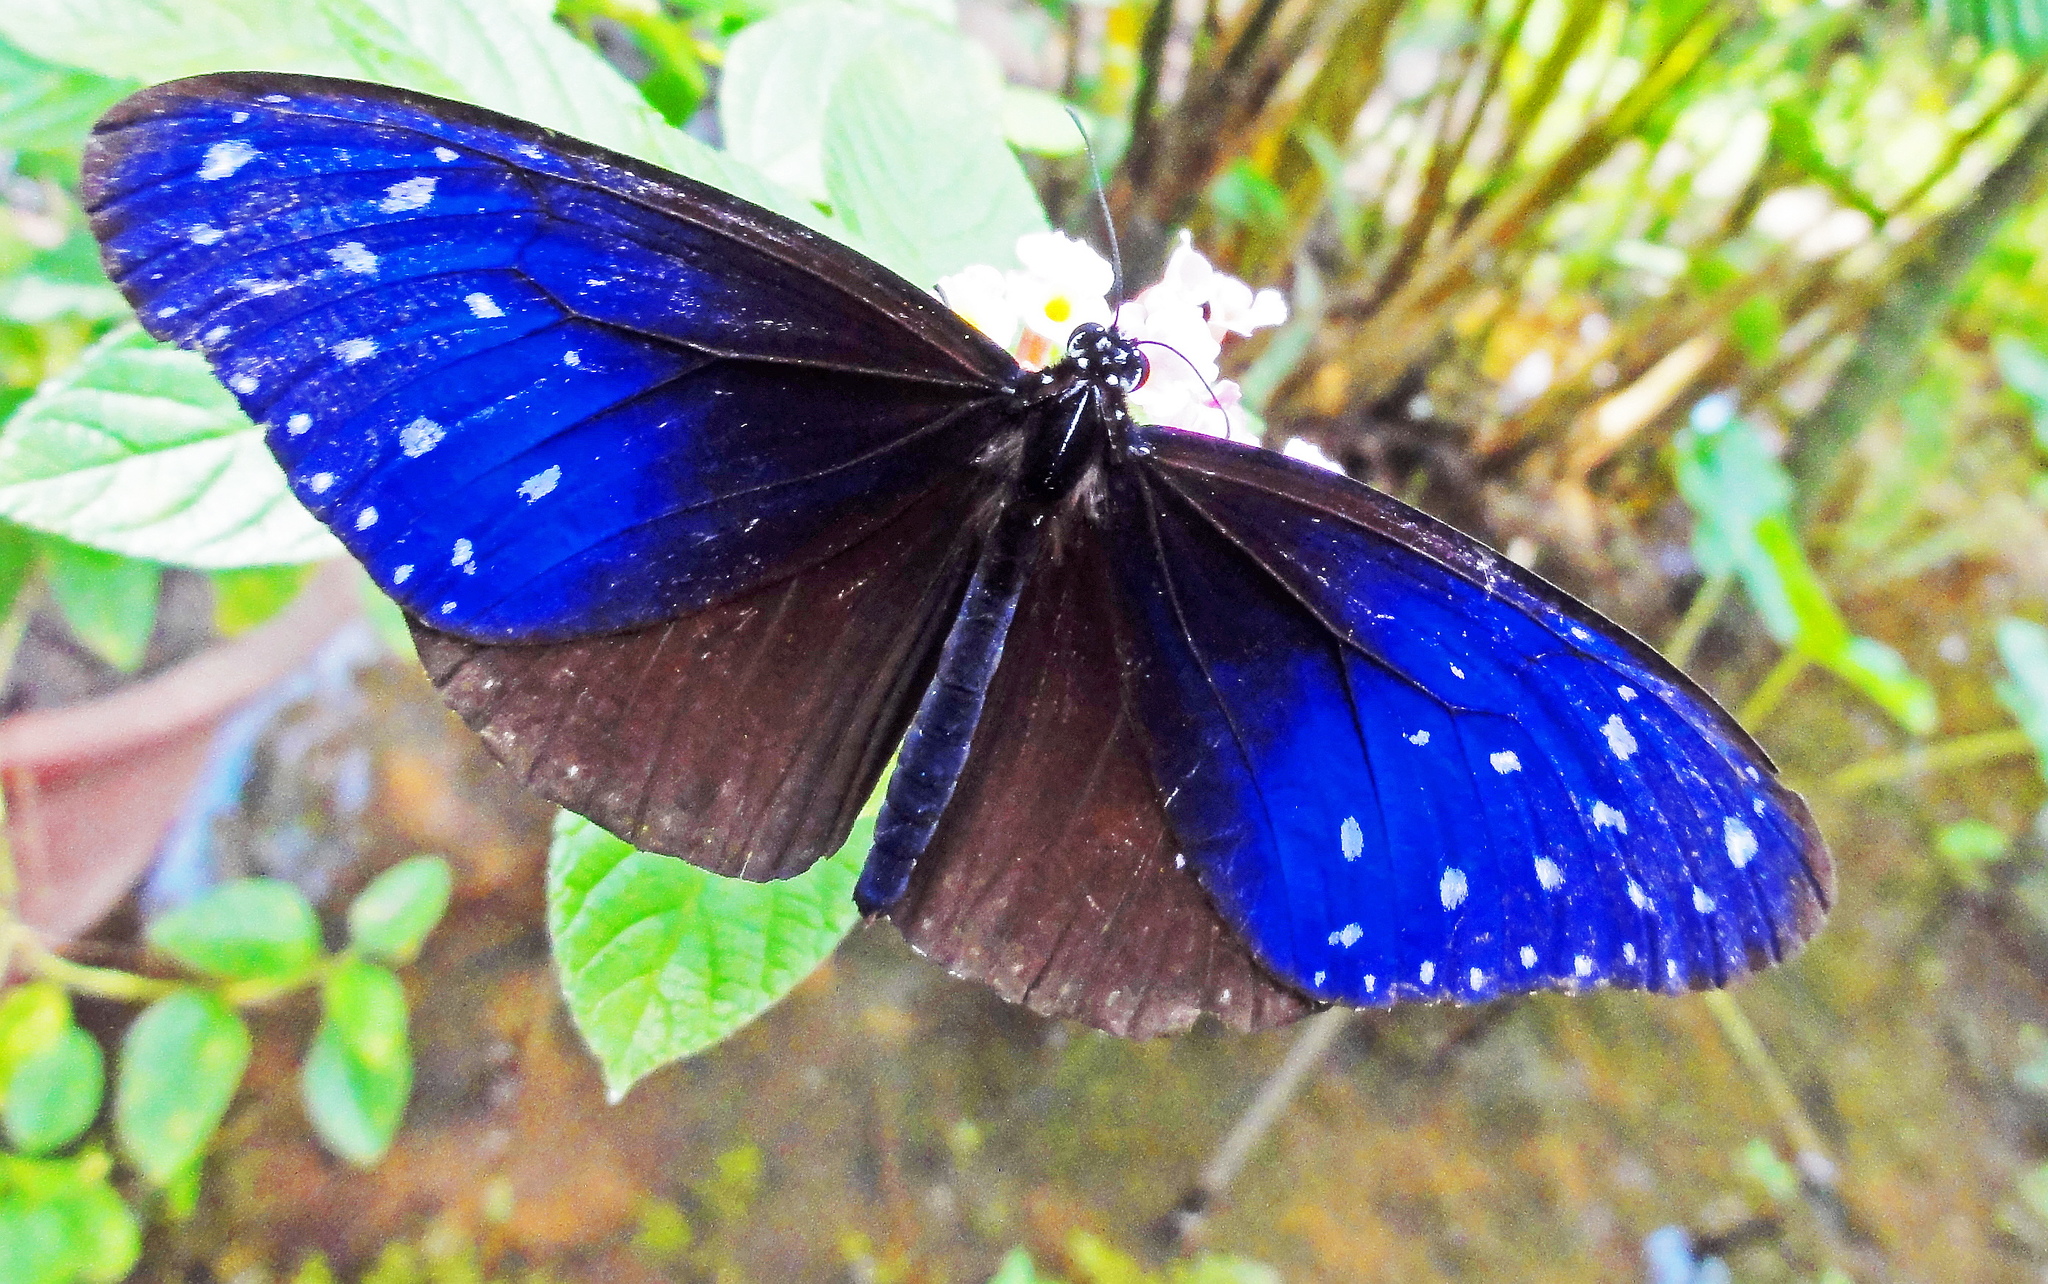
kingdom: Animalia
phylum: Arthropoda
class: Insecta
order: Lepidoptera
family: Nymphalidae
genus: Euploea
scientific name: Euploea mulciber
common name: Striped blue crow butterfly
